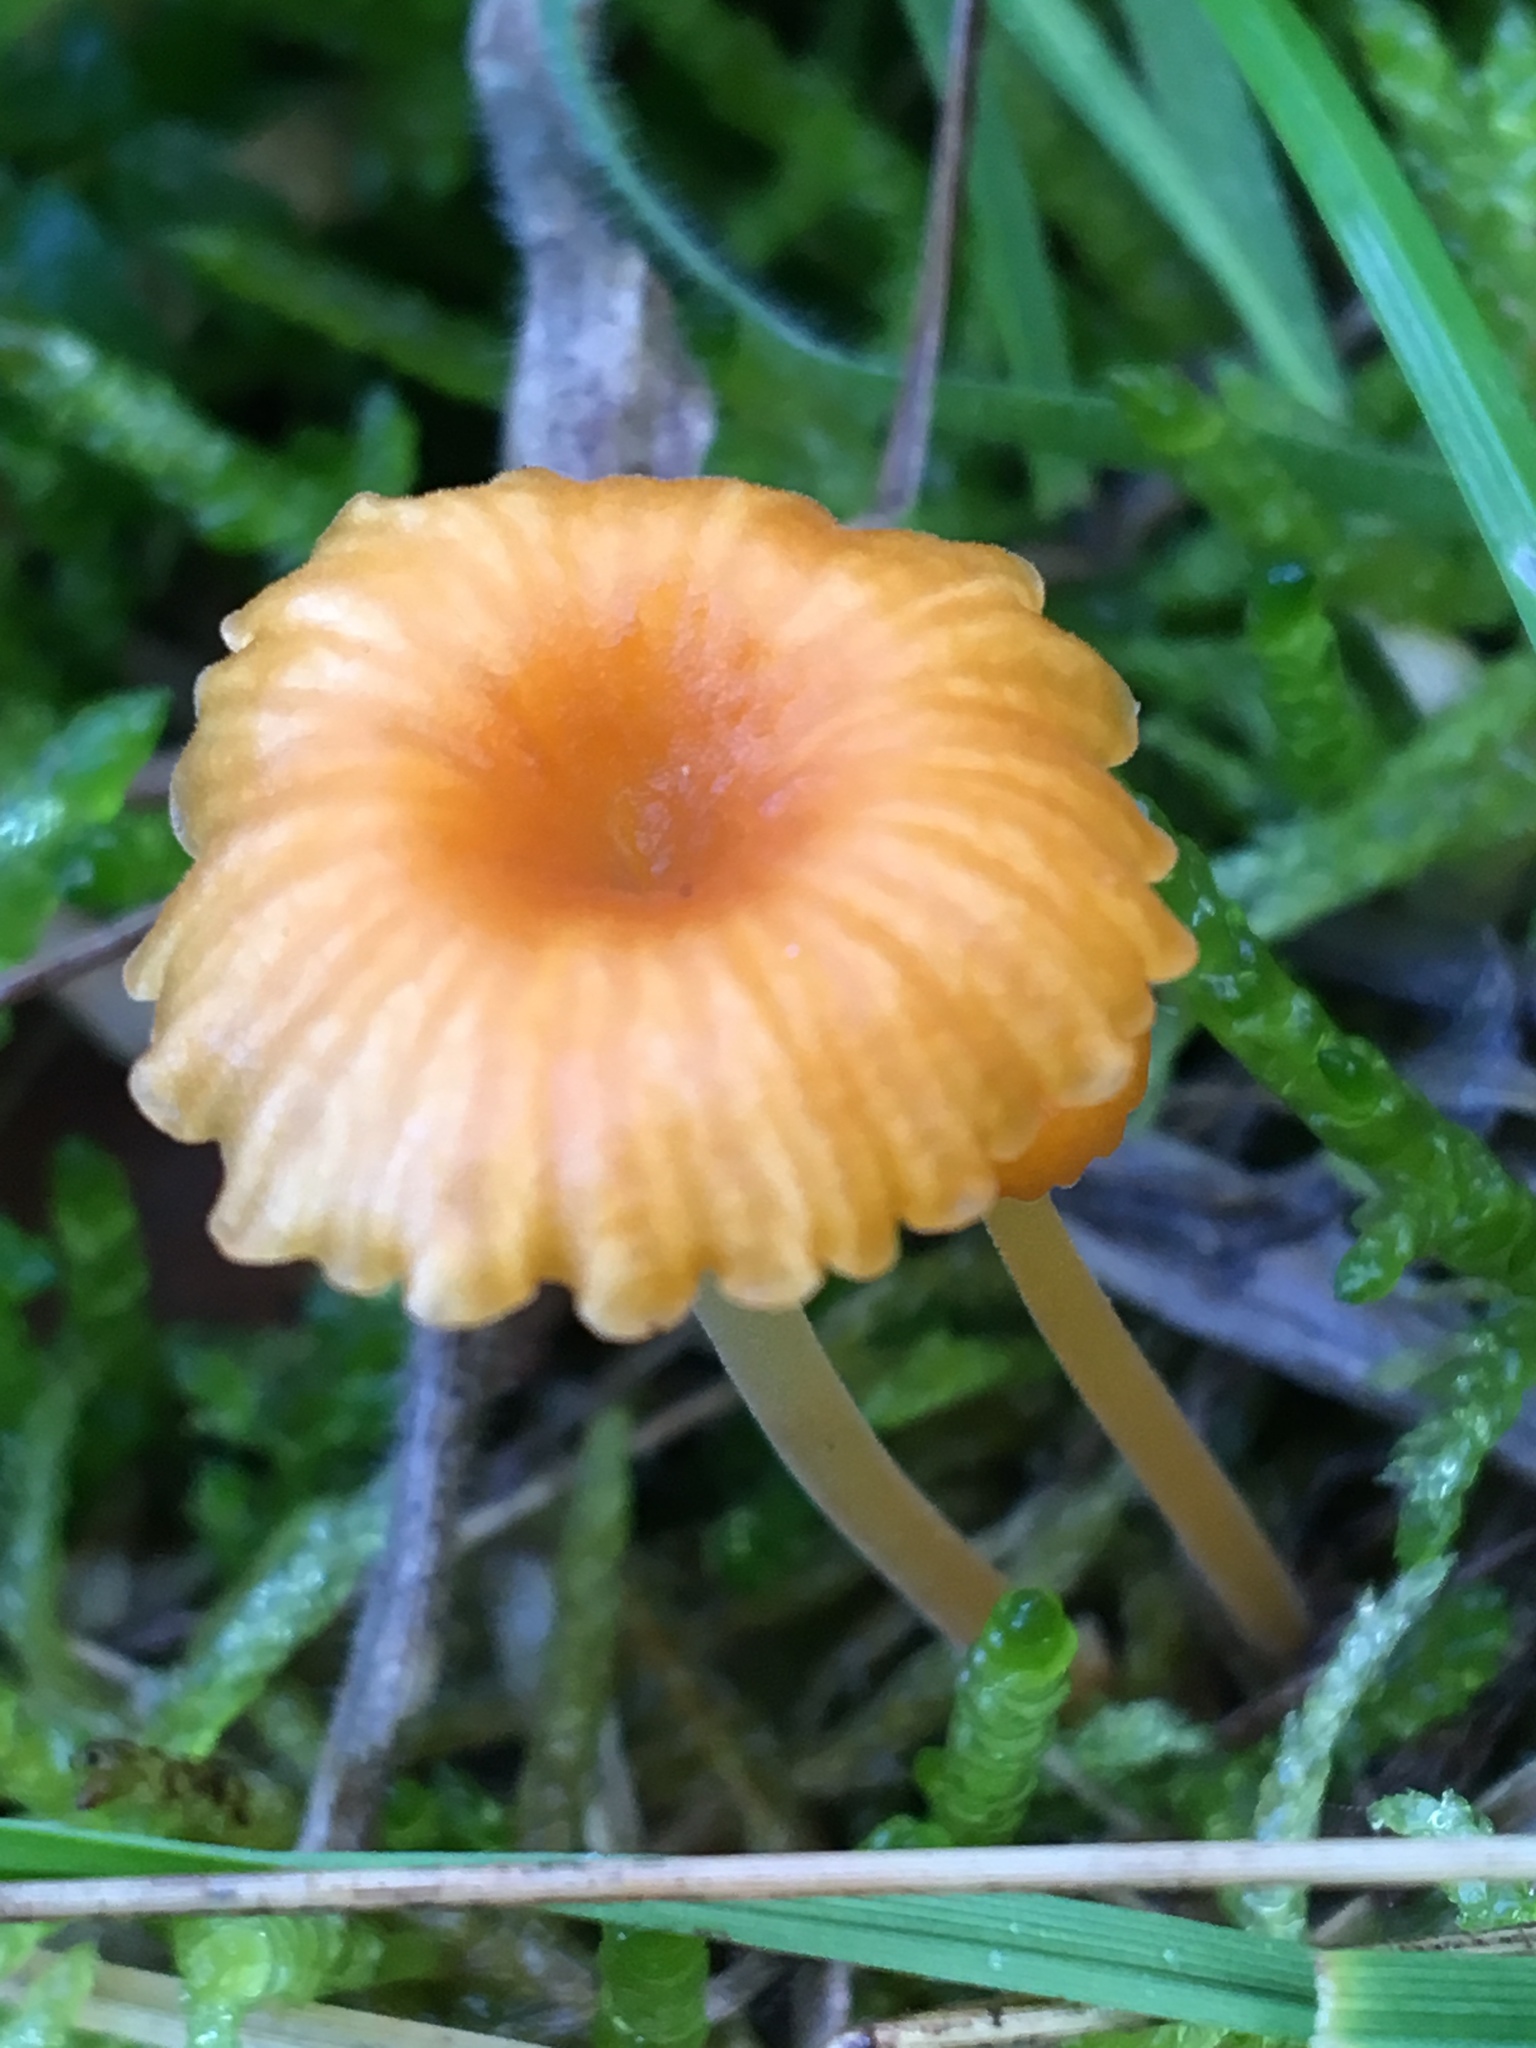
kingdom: Fungi
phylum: Basidiomycota
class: Agaricomycetes
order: Hymenochaetales
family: Rickenellaceae
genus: Rickenella
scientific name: Rickenella fibula
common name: Orange mosscap
